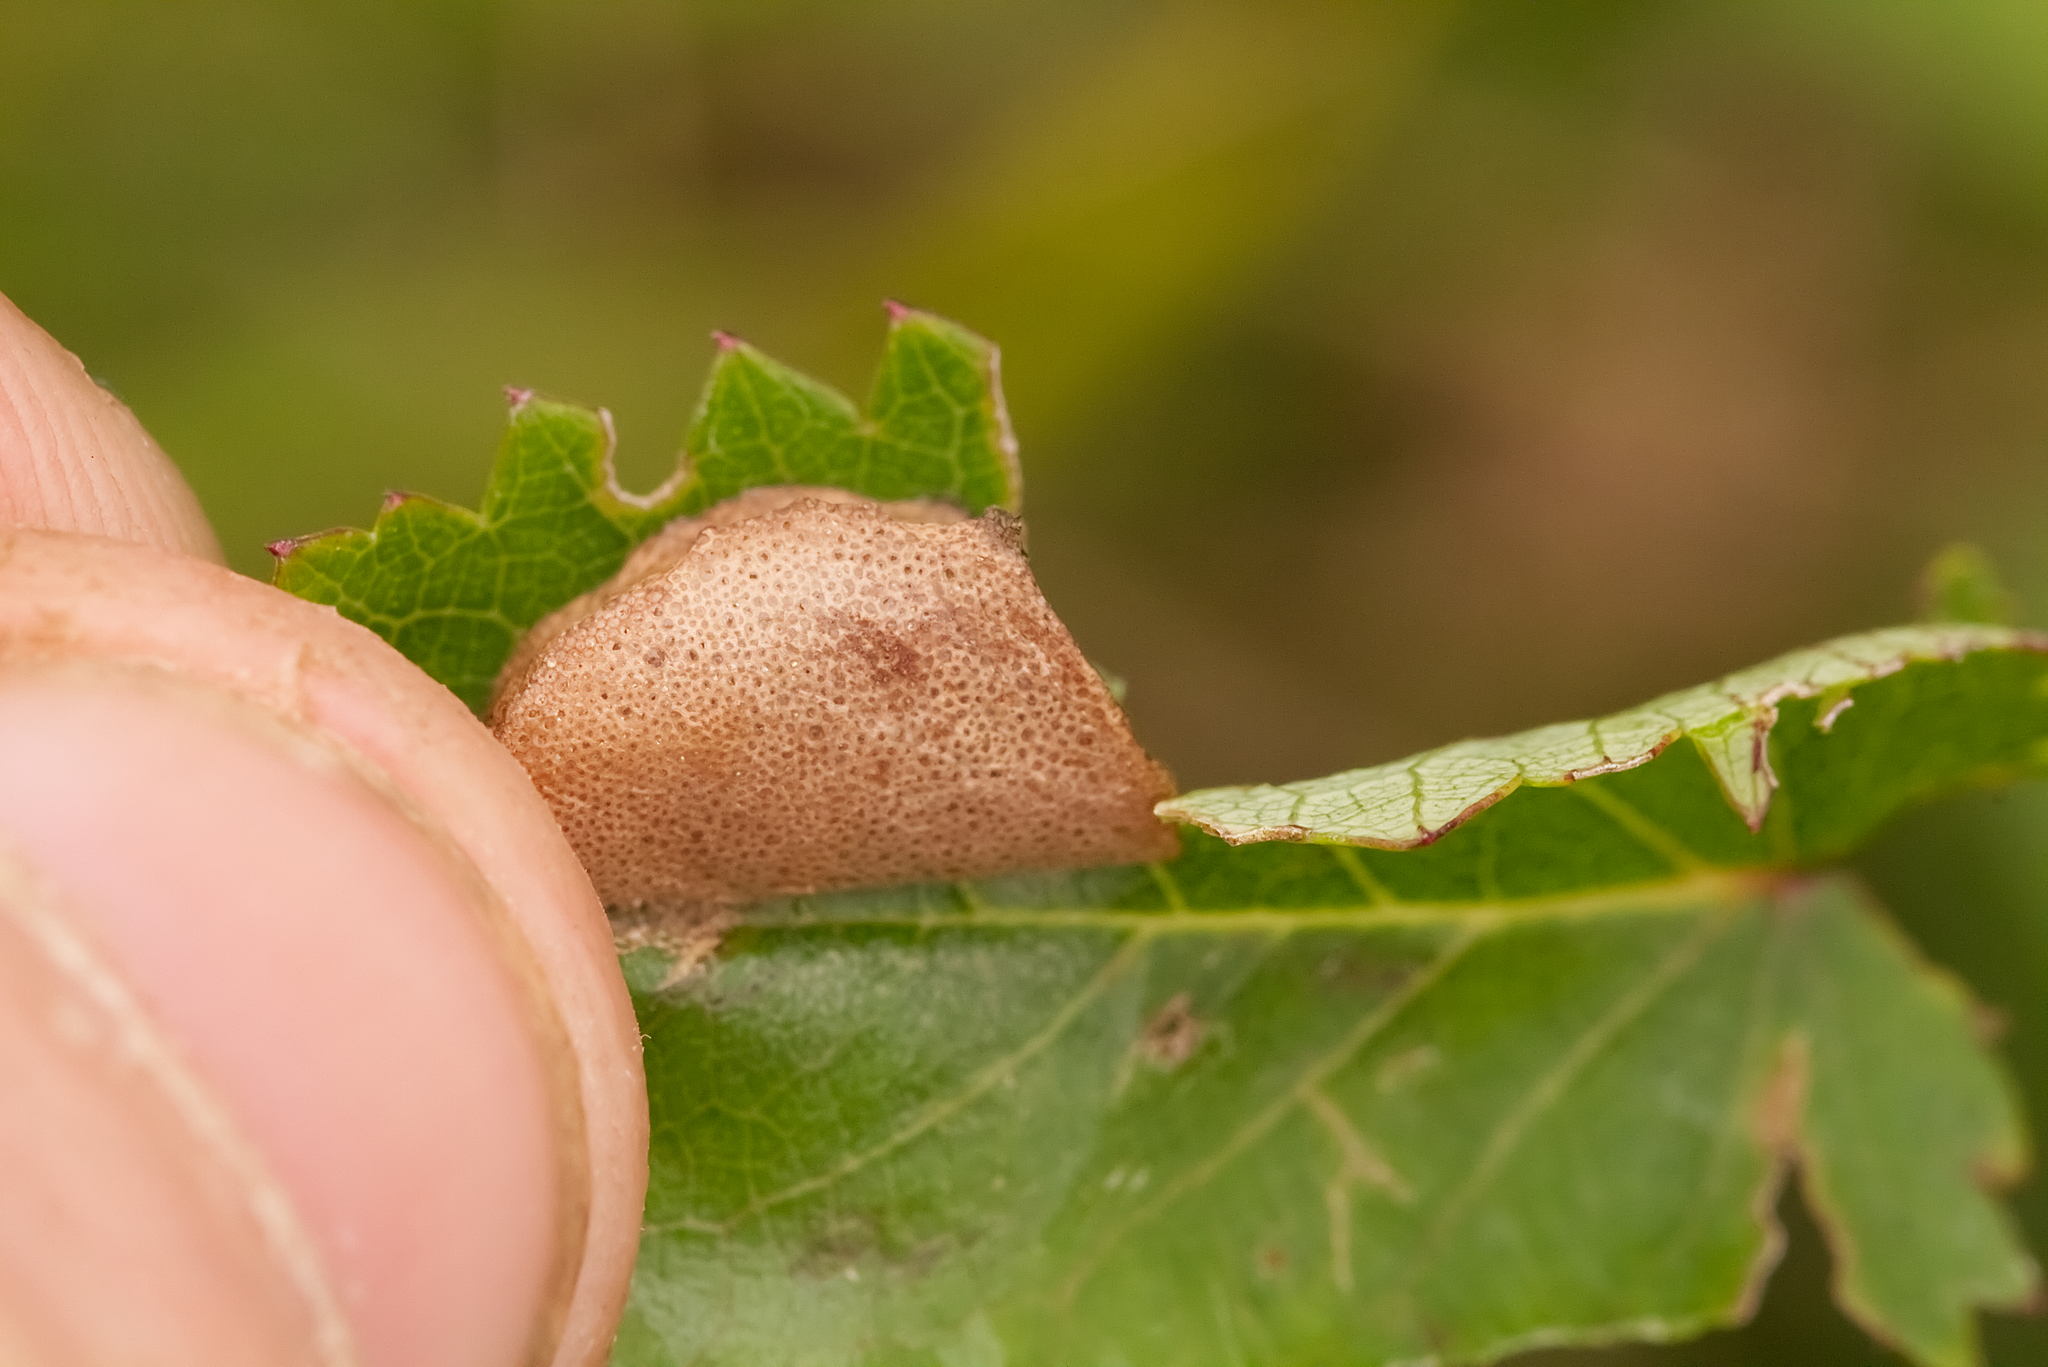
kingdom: Animalia
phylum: Arthropoda
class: Insecta
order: Orthoptera
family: Acrididae
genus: Euthystira
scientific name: Euthystira brachyptera
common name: Small gold grasshopper
